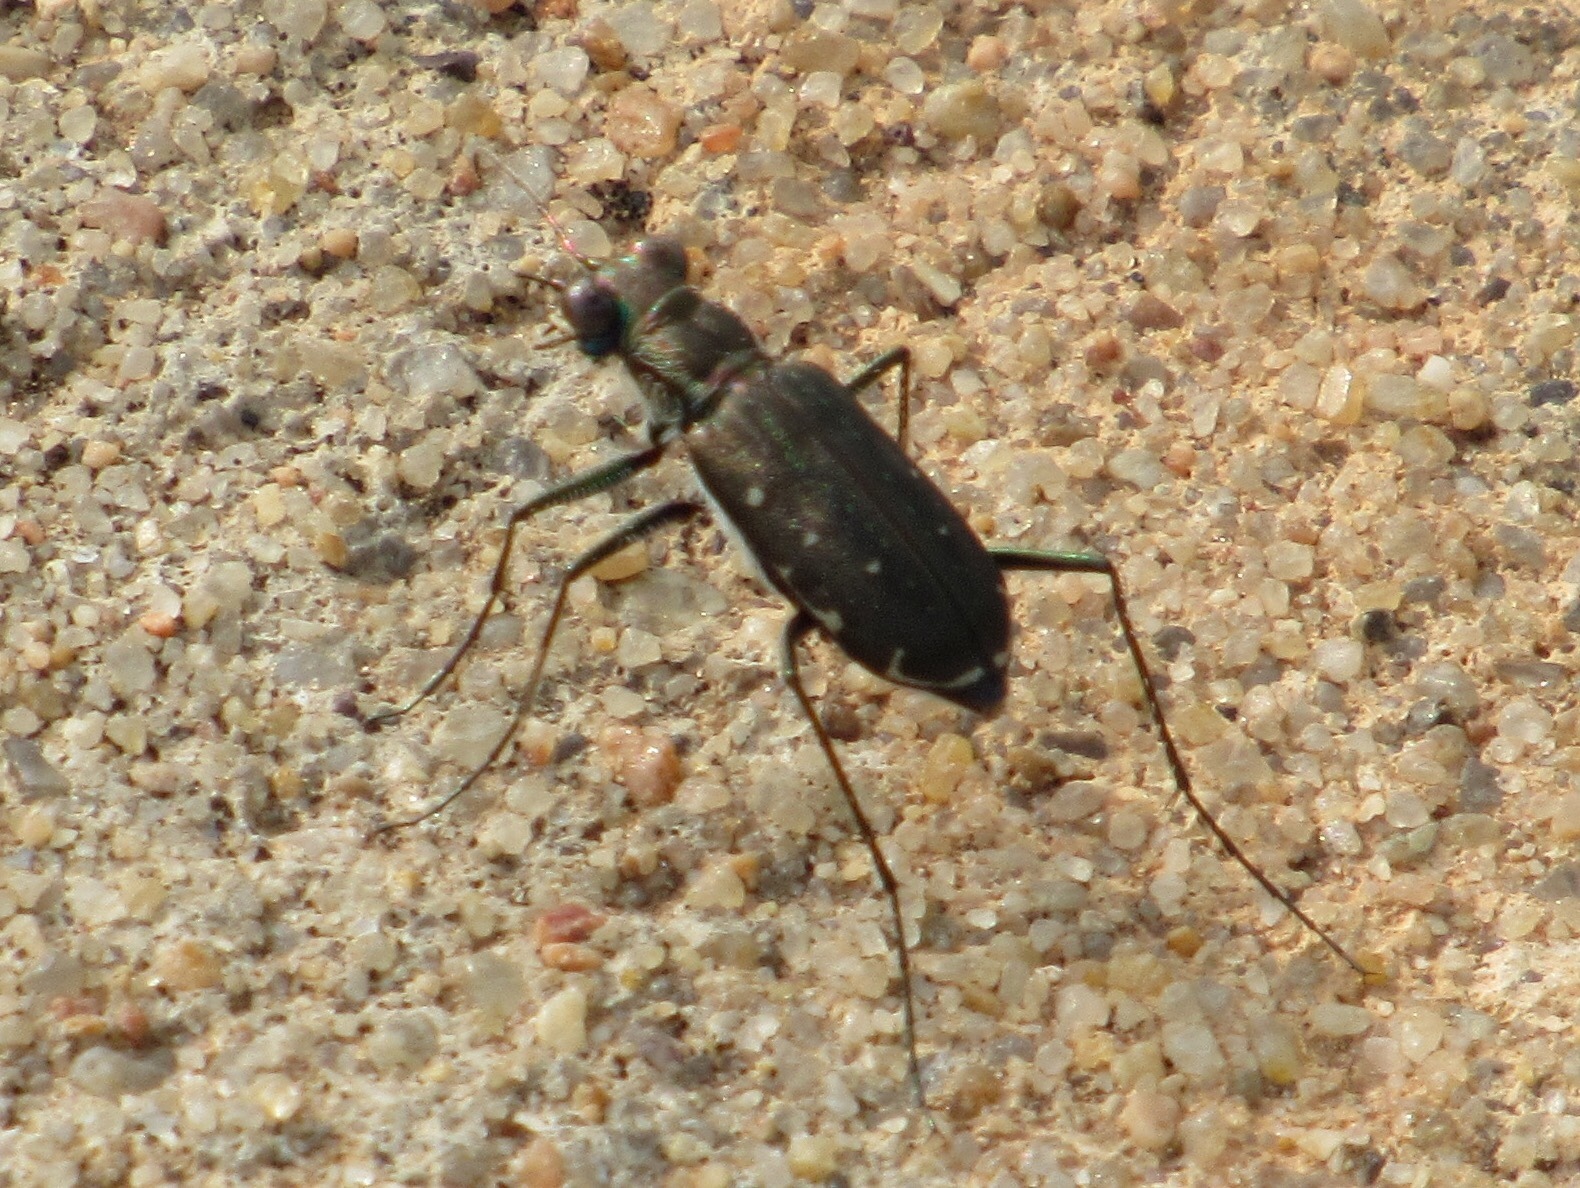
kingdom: Animalia
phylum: Arthropoda
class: Insecta
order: Coleoptera
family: Carabidae
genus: Cicindela
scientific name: Cicindela punctulata
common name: Punctured tiger beetle
